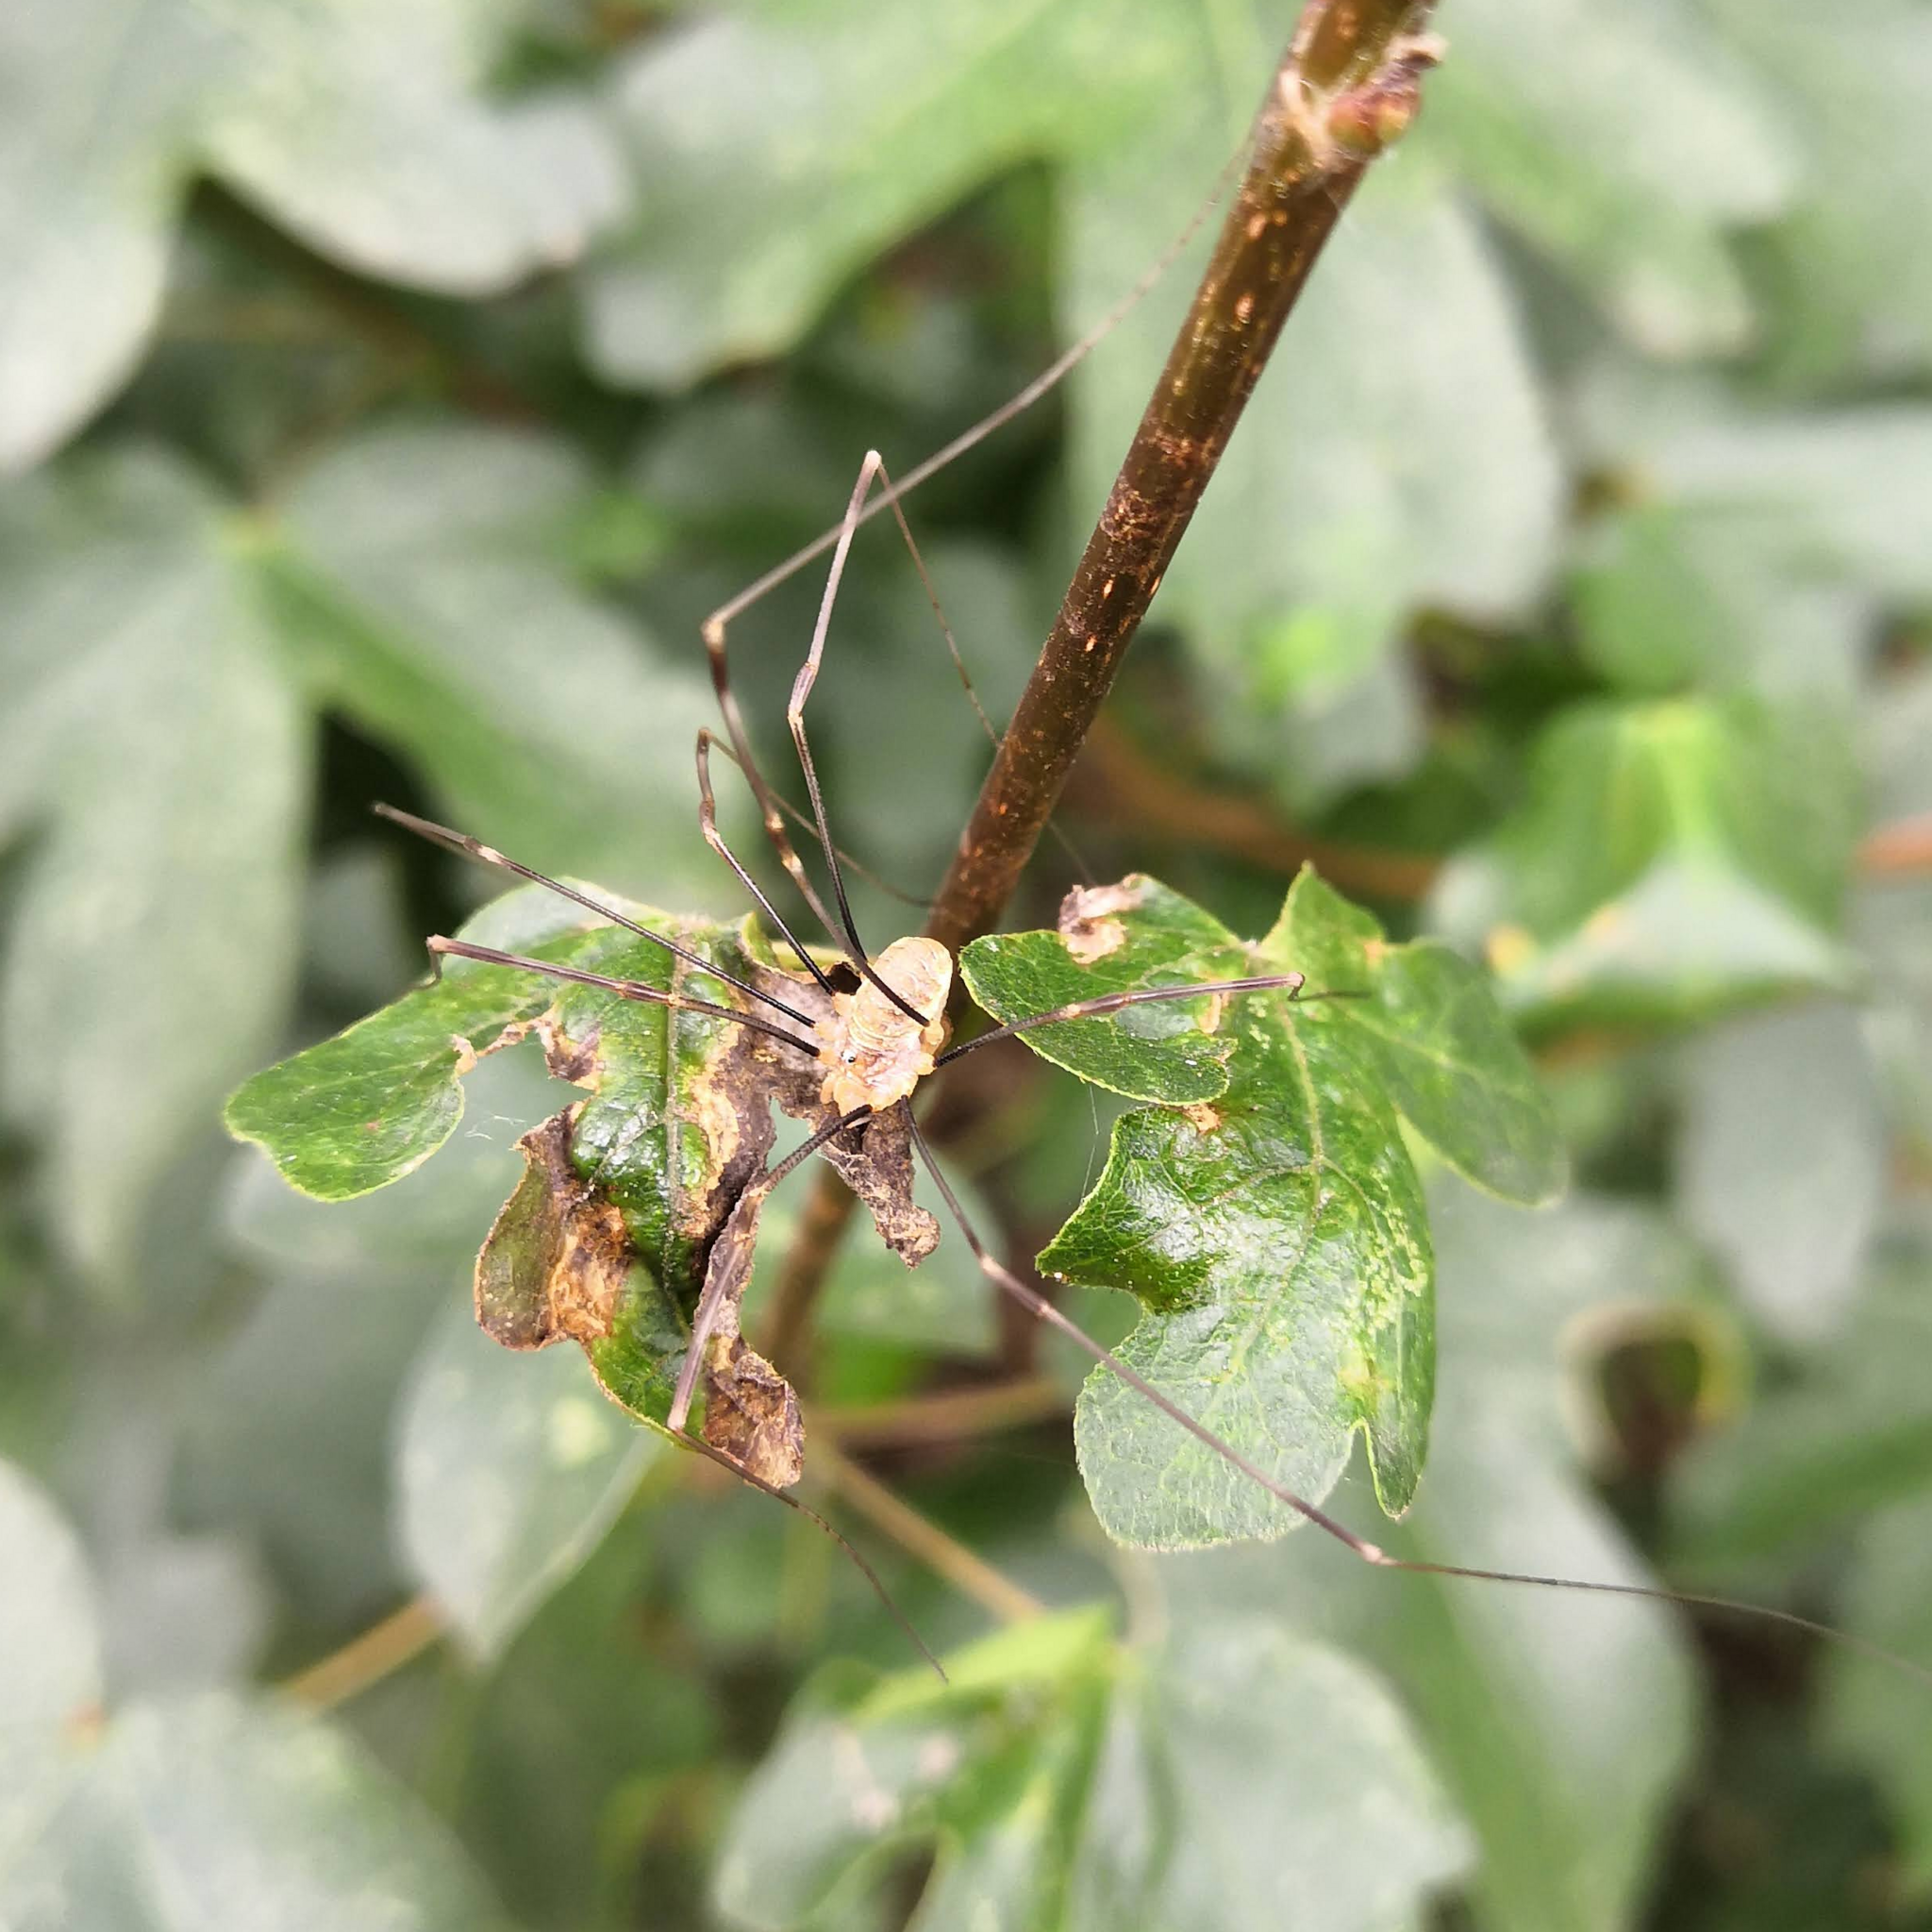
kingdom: Animalia
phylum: Arthropoda
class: Arachnida
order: Opiliones
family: Phalangiidae
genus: Opilio
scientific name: Opilio canestrinii
